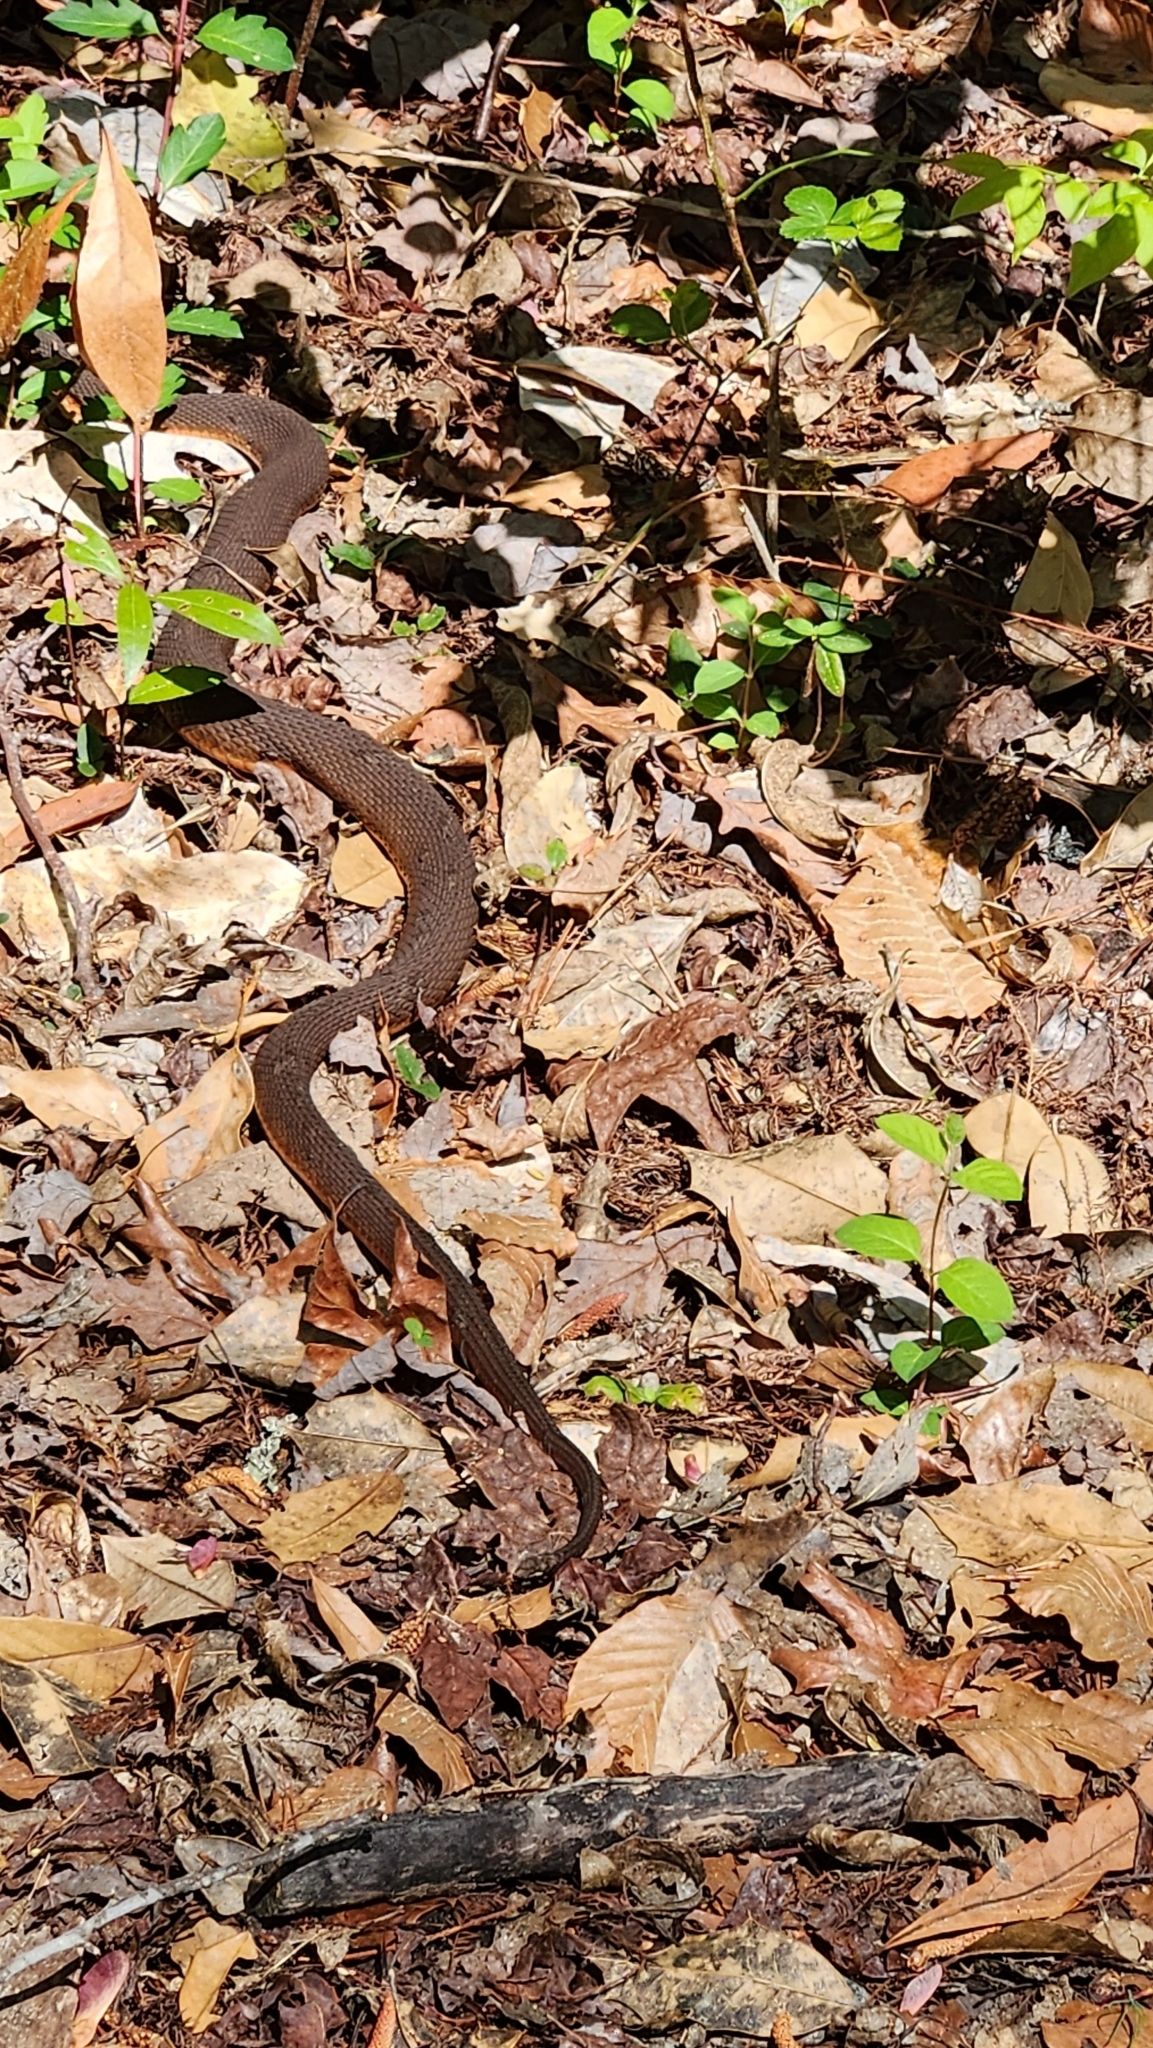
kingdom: Animalia
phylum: Chordata
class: Squamata
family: Colubridae
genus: Nerodia
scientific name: Nerodia erythrogaster
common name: Plainbelly water snake
